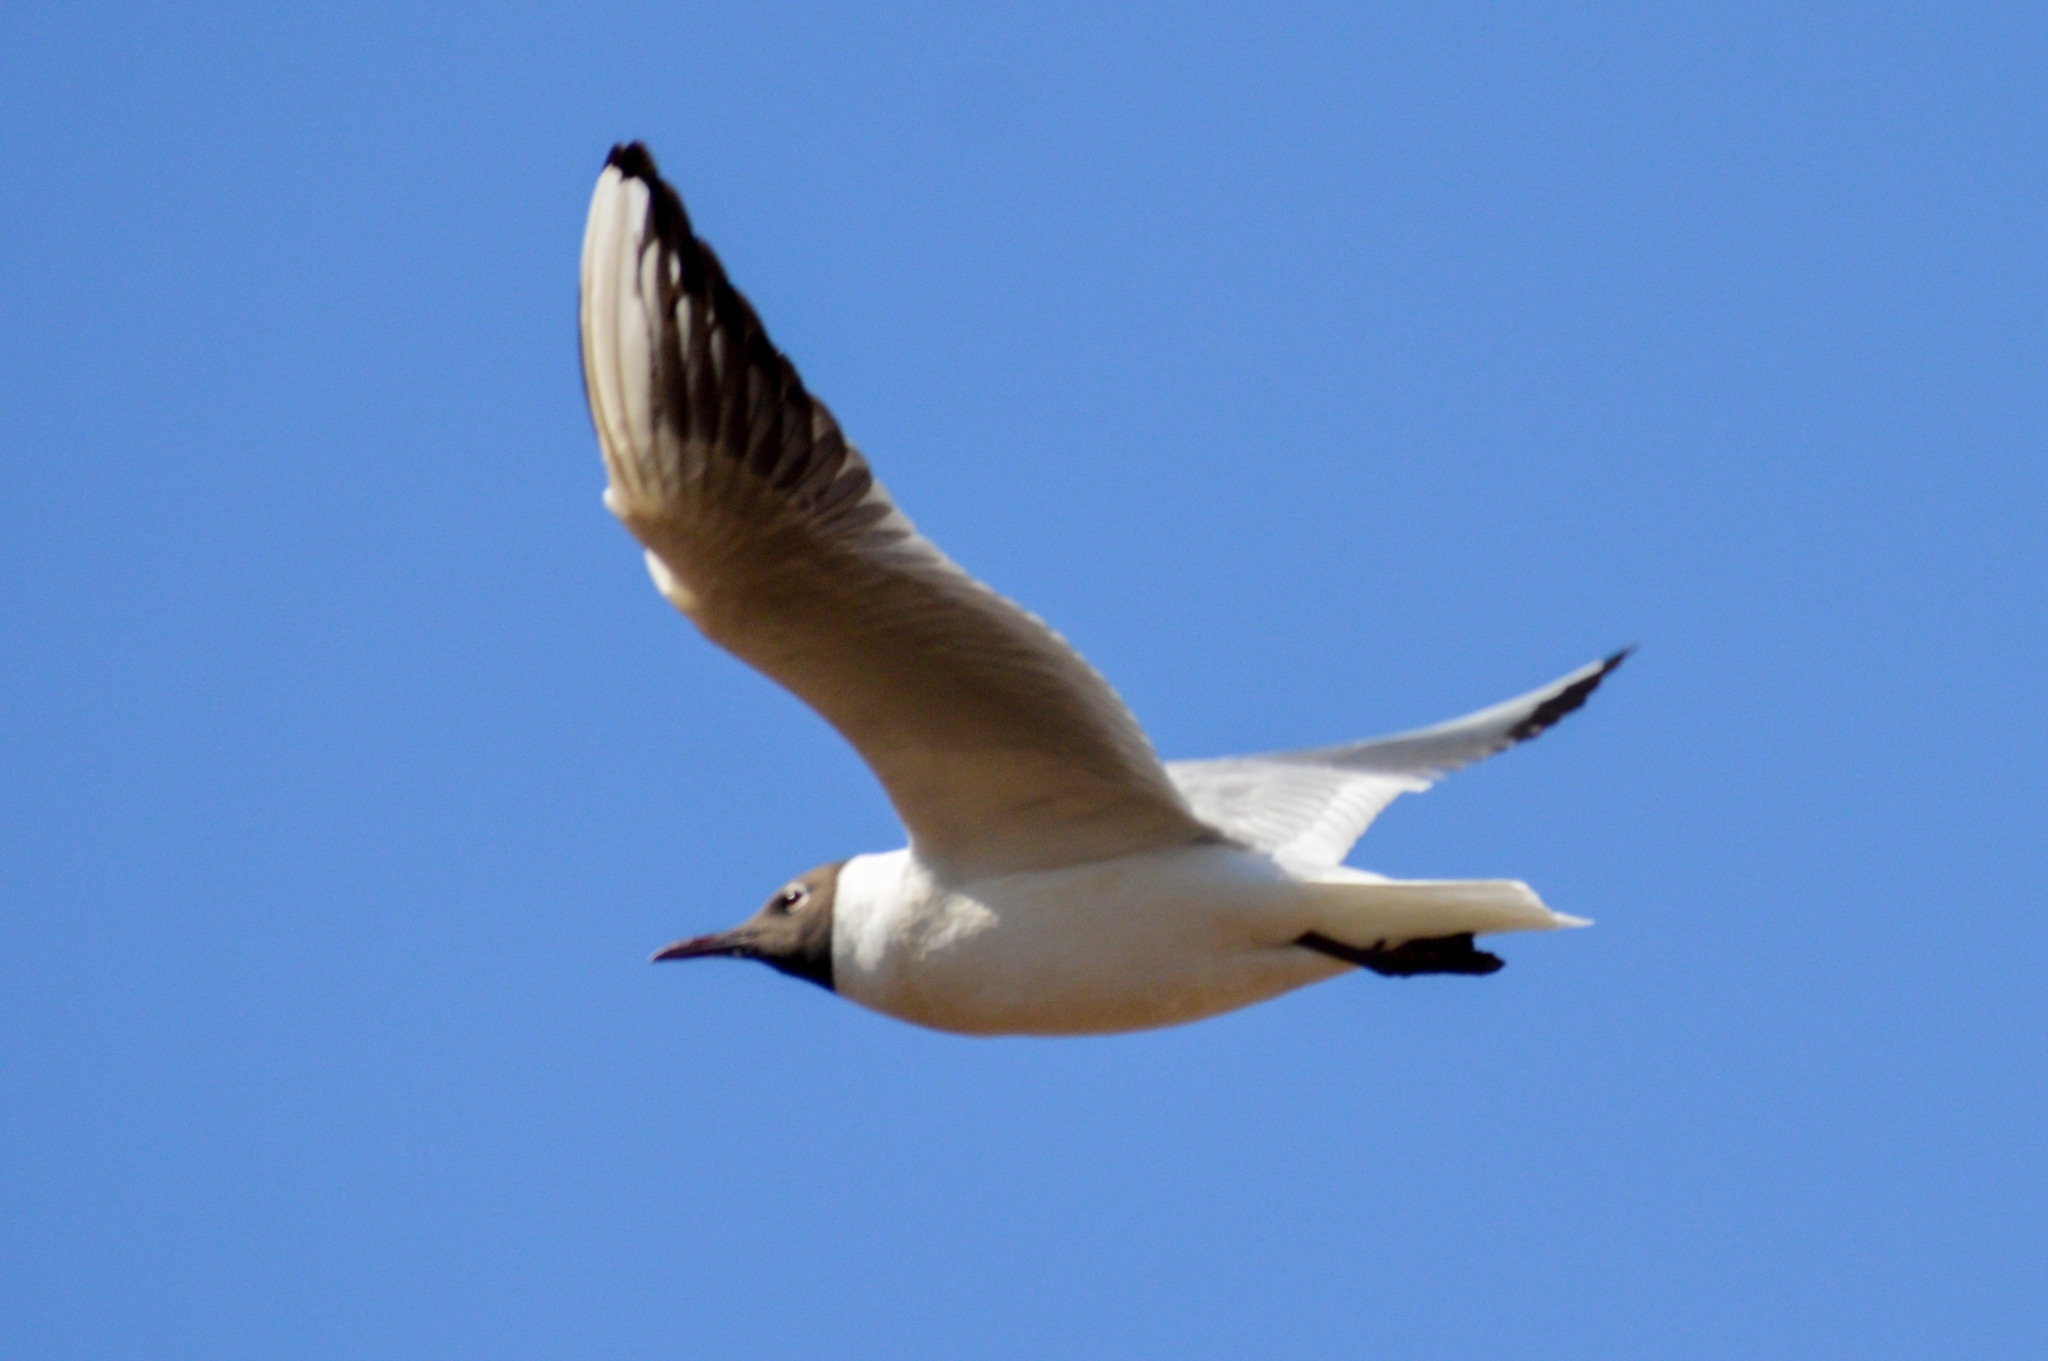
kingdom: Animalia
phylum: Chordata
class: Aves
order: Charadriiformes
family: Laridae
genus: Chroicocephalus
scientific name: Chroicocephalus ridibundus
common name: Black-headed gull
